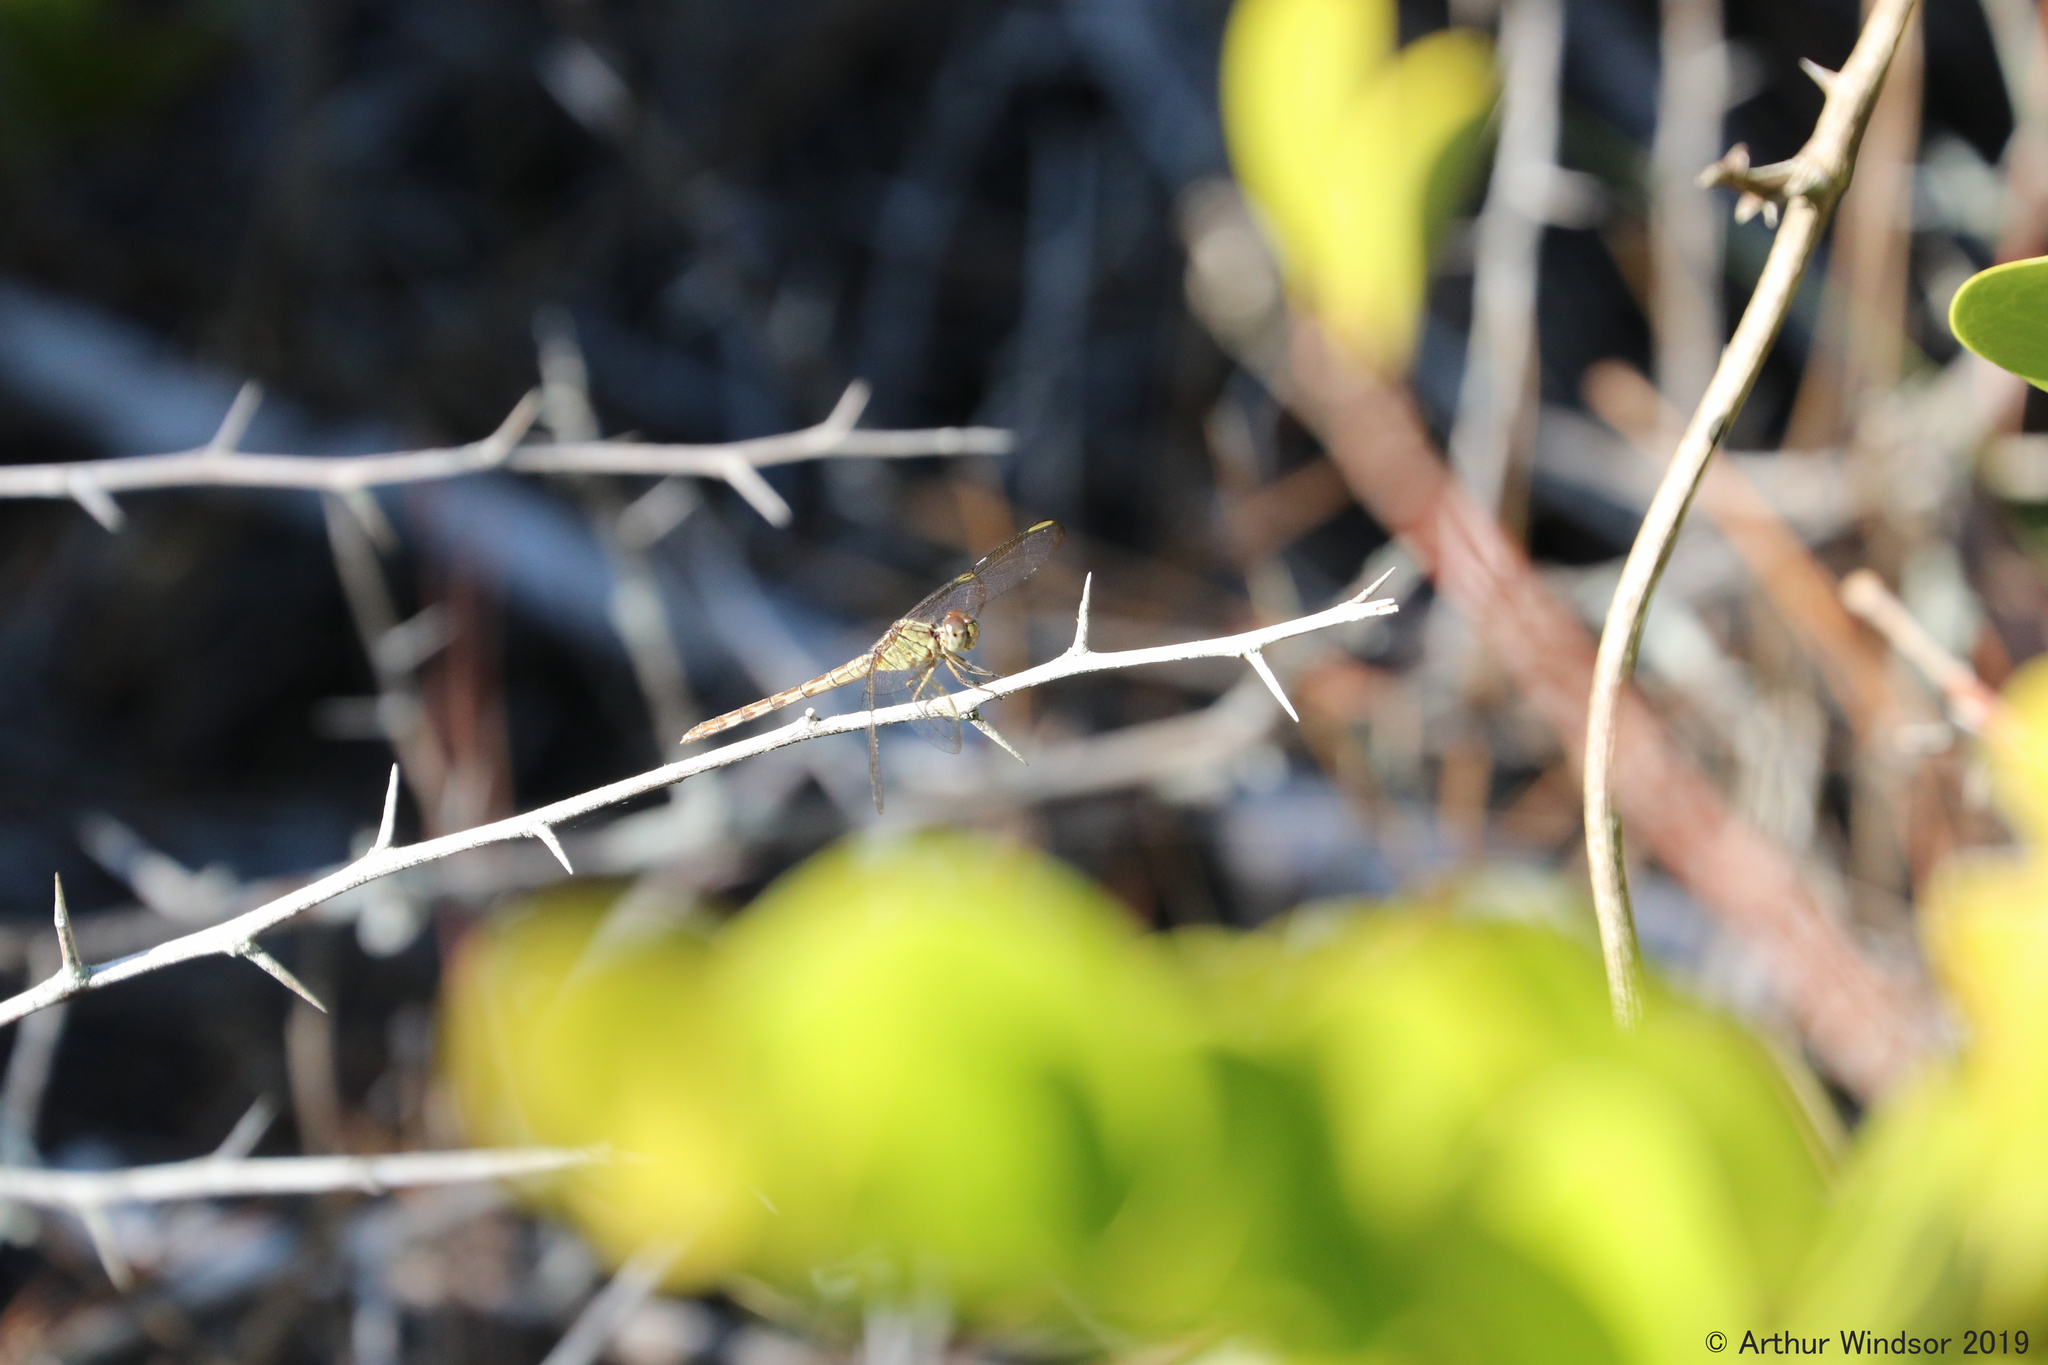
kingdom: Animalia
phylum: Arthropoda
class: Insecta
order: Odonata
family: Libellulidae
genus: Erythrodiplax
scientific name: Erythrodiplax umbrata
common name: Band-winged dragonlet
